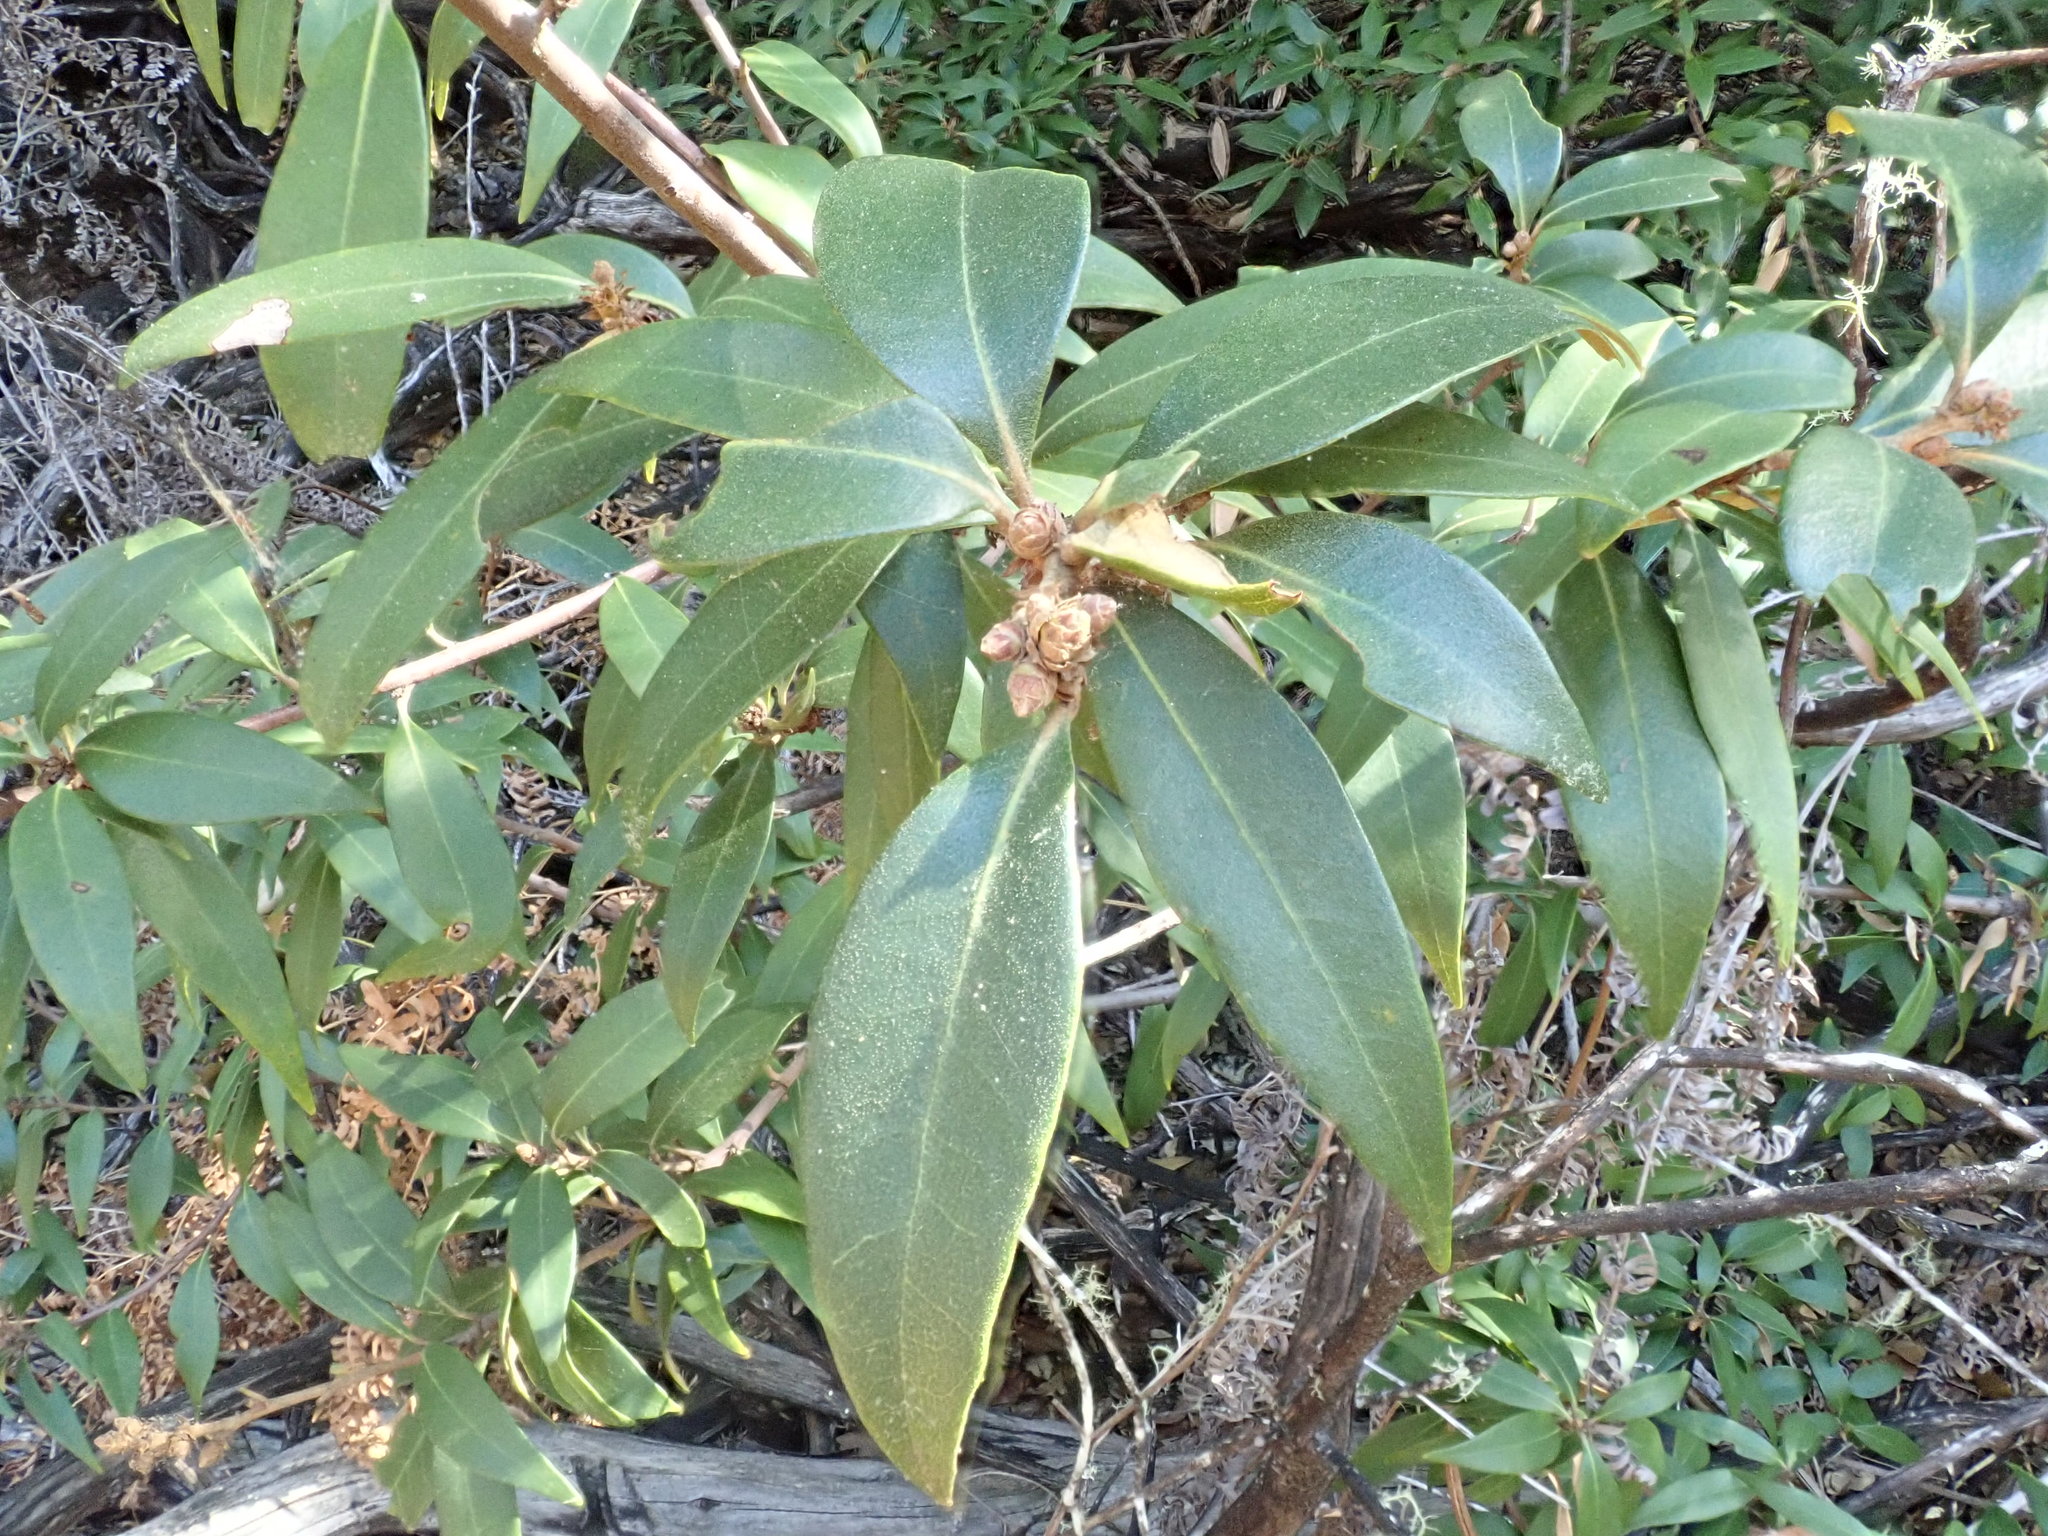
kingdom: Plantae
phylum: Tracheophyta
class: Magnoliopsida
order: Fagales
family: Fagaceae
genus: Chrysolepis
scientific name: Chrysolepis chrysophylla
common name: Giant chinquapin
